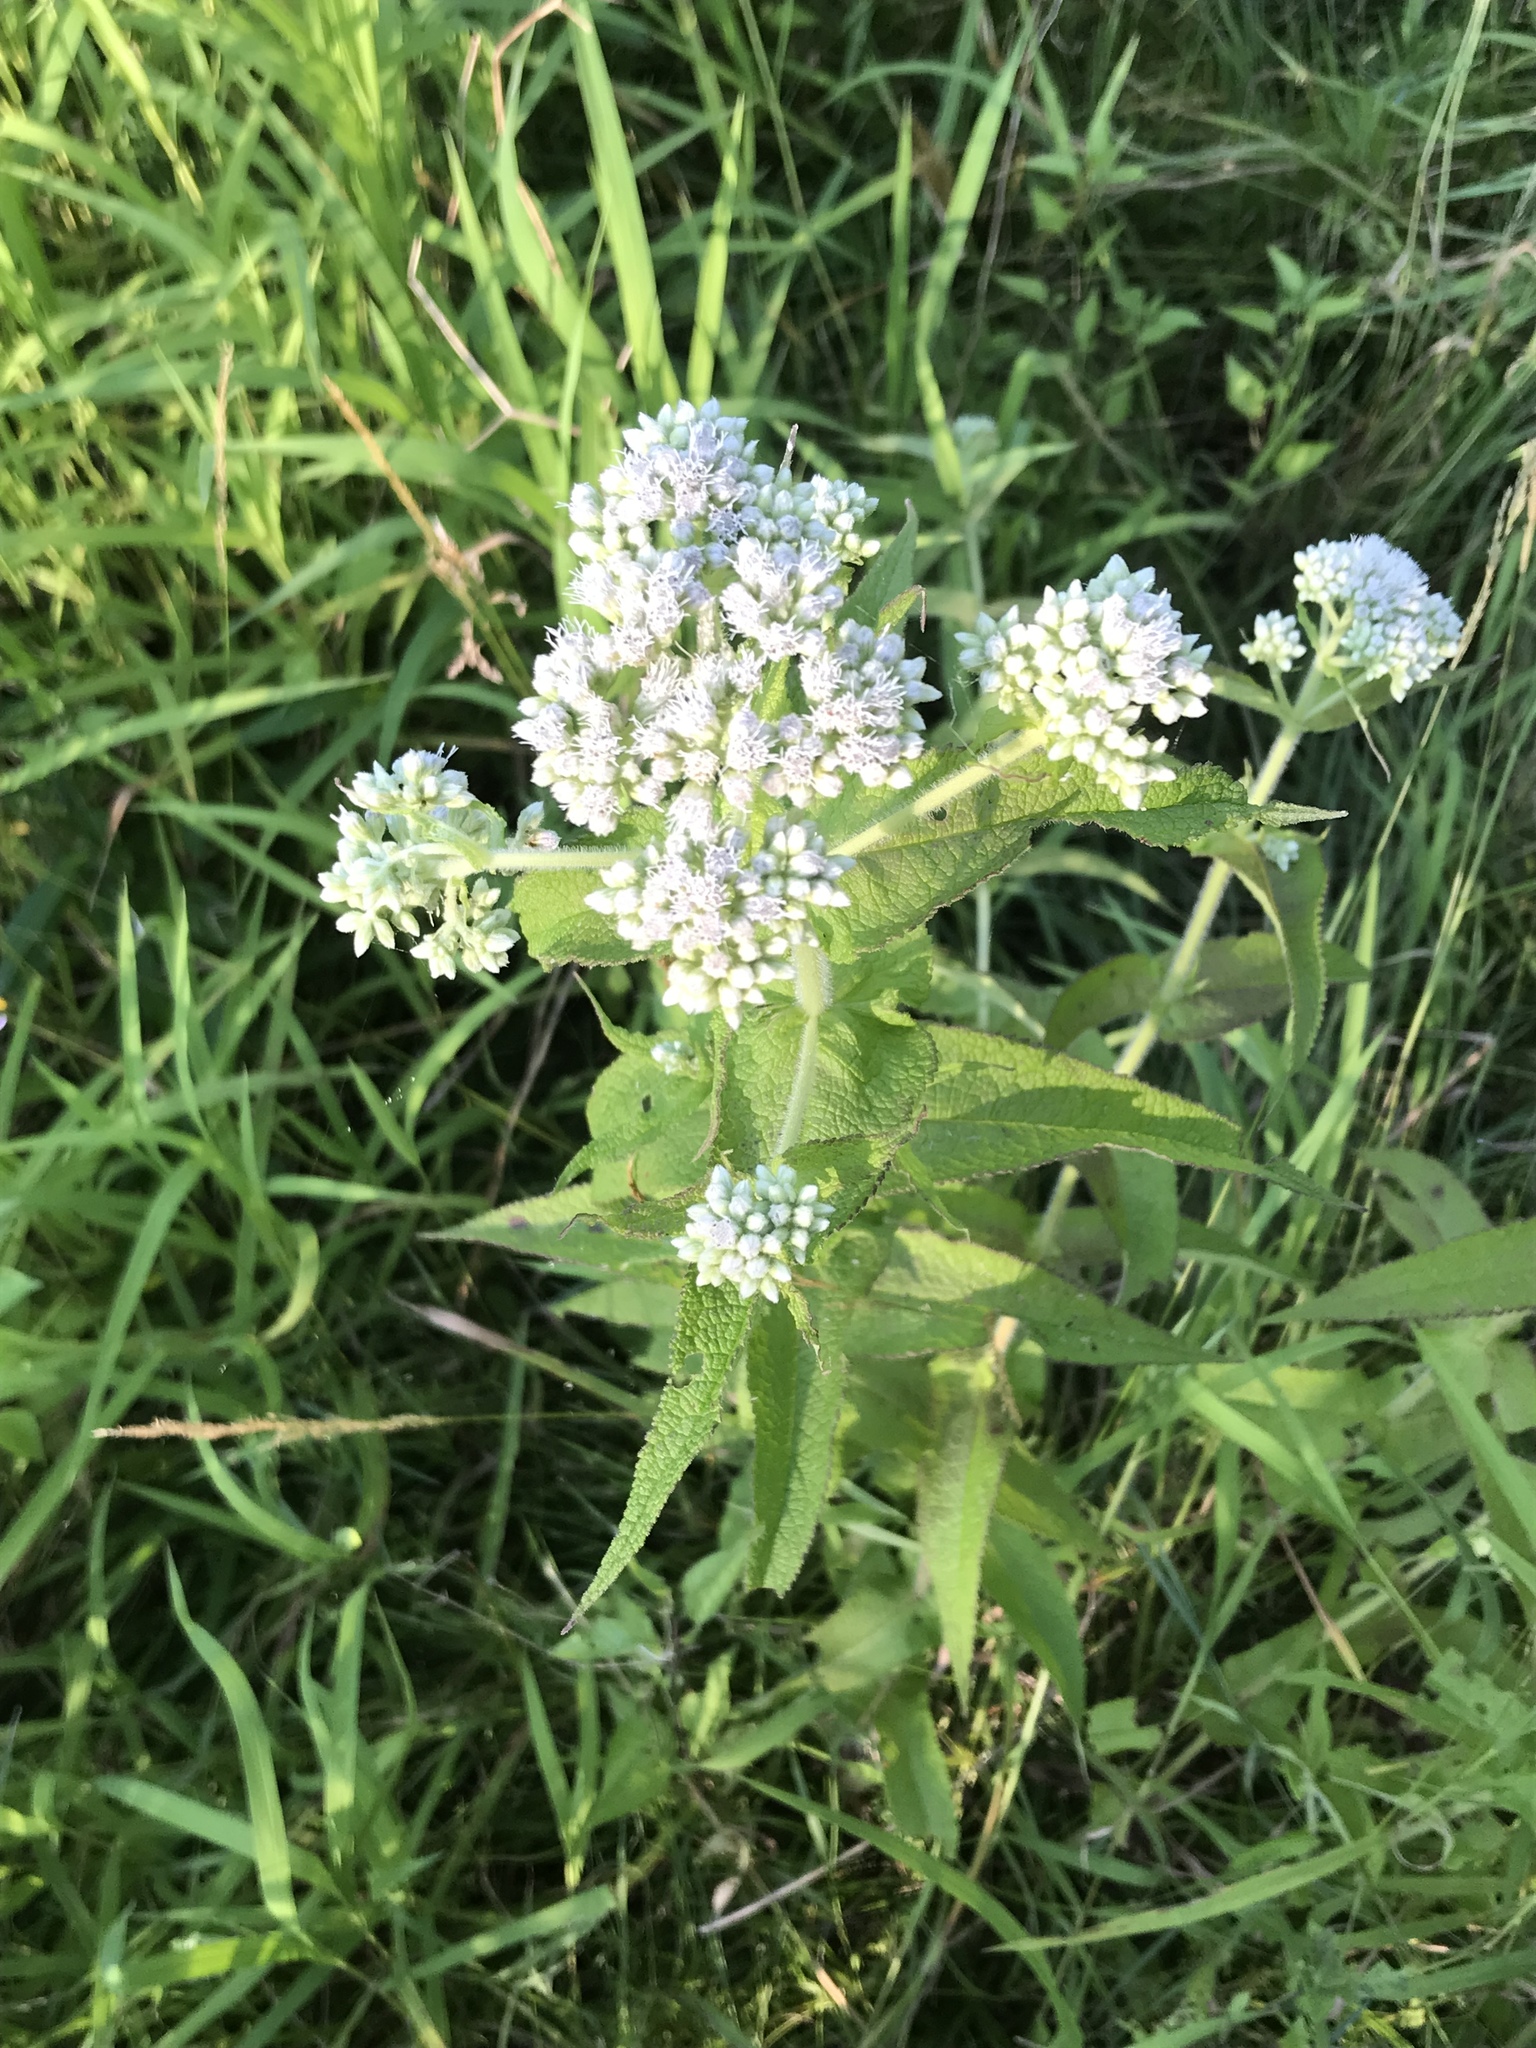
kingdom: Plantae
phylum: Tracheophyta
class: Magnoliopsida
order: Asterales
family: Asteraceae
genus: Eupatorium
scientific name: Eupatorium perfoliatum
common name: Boneset
